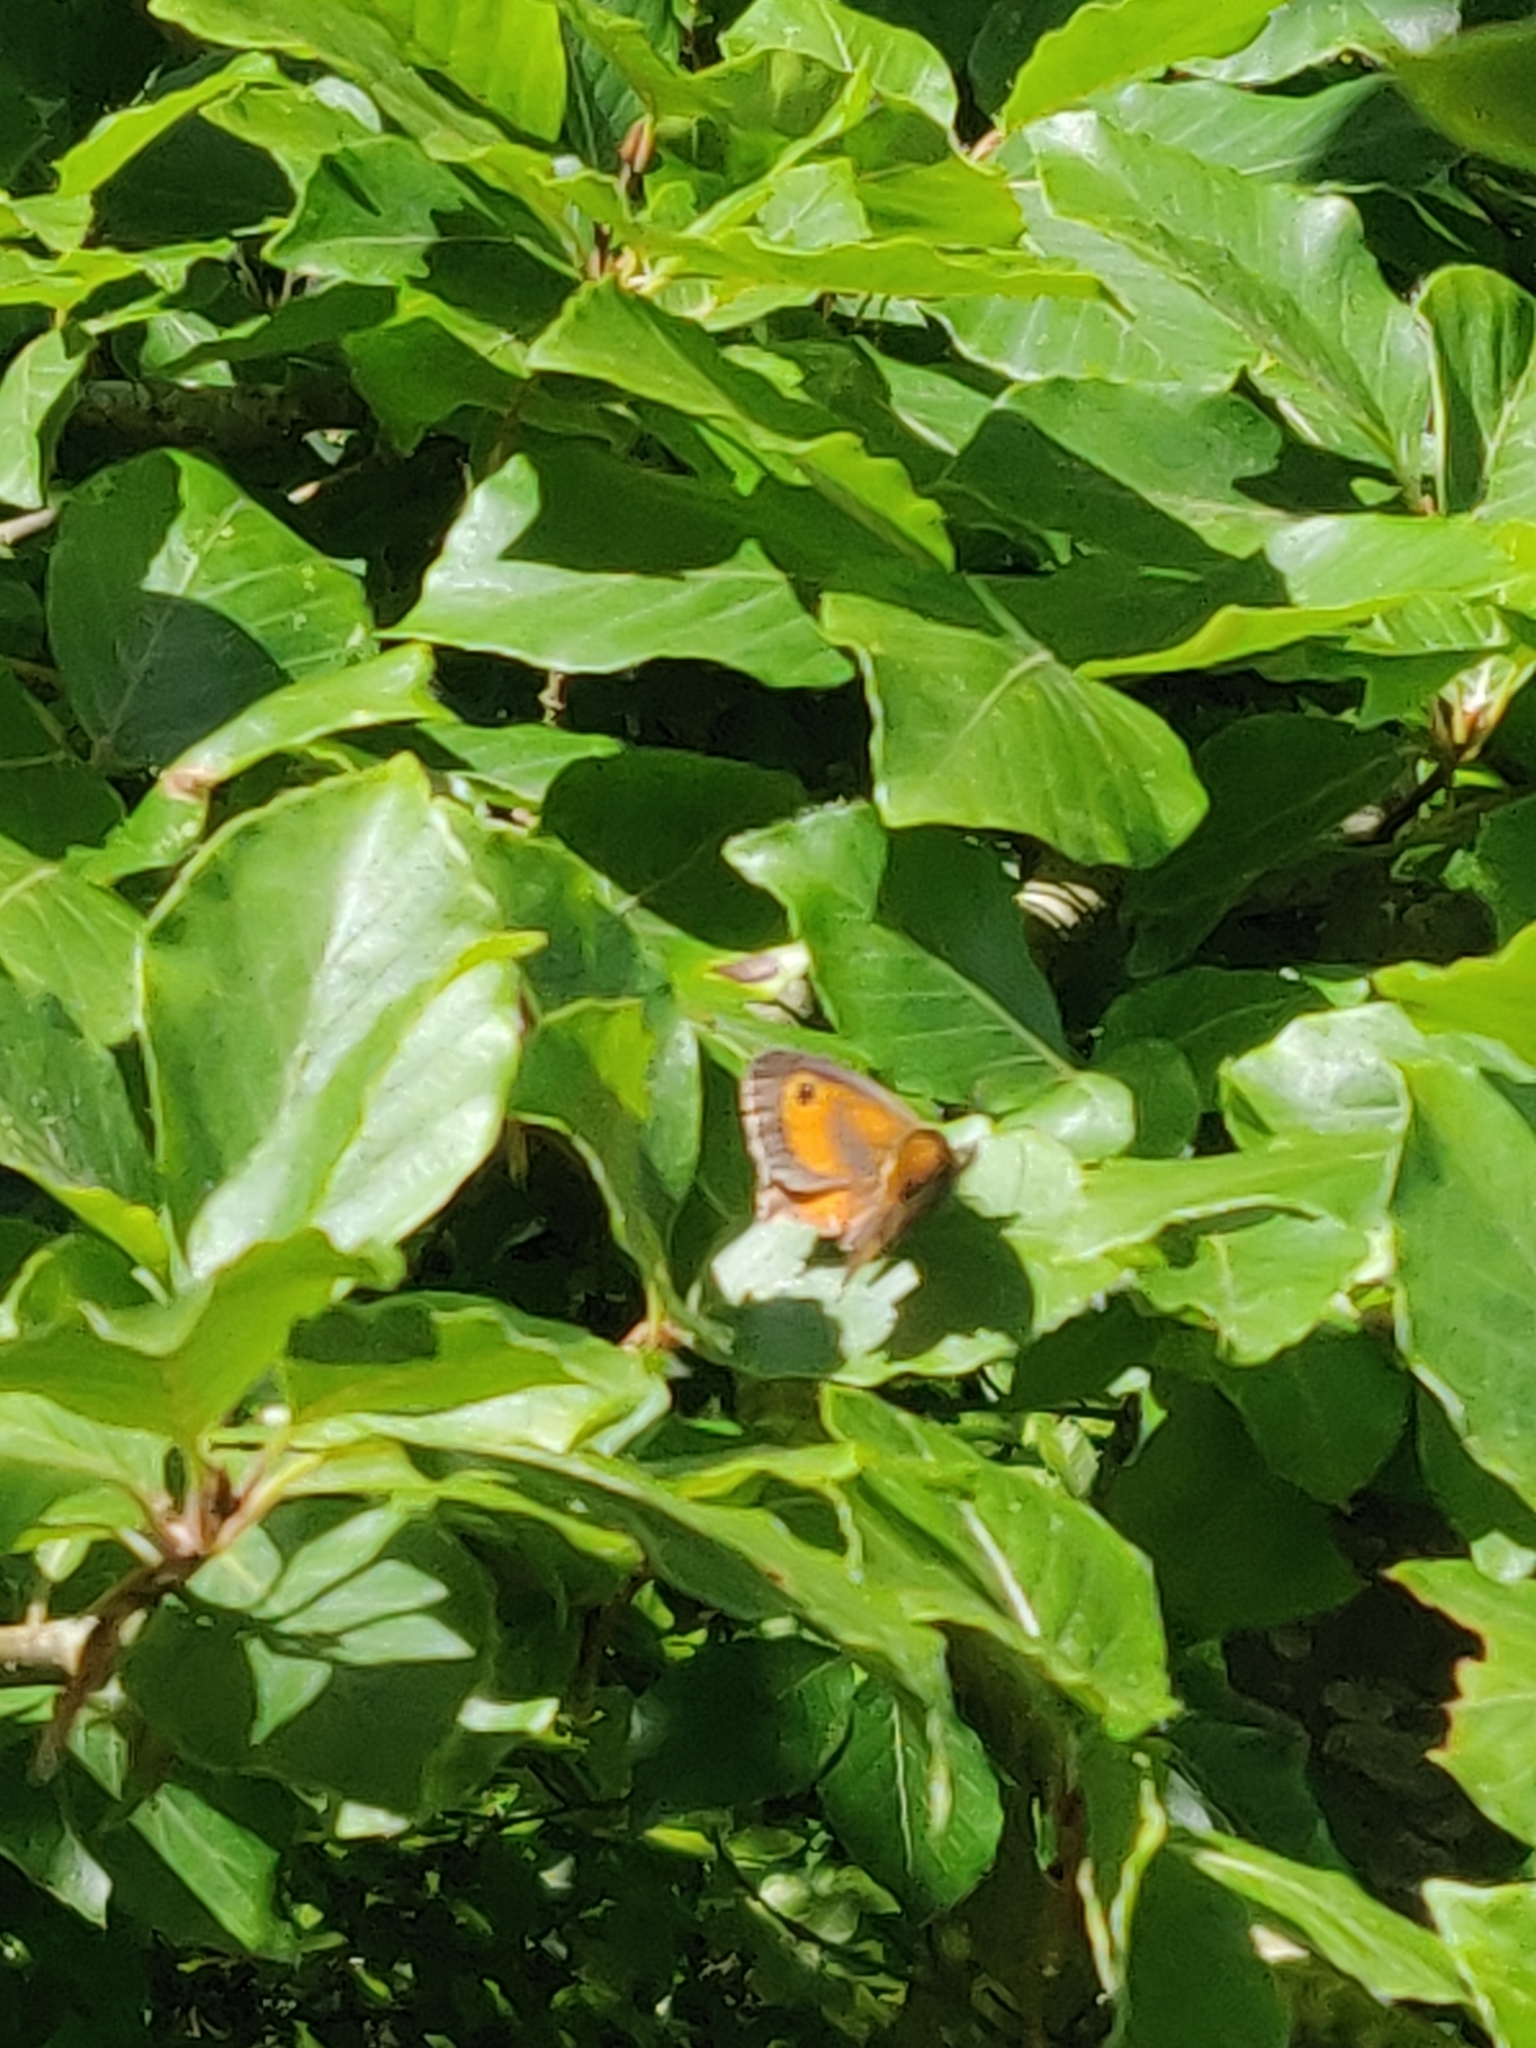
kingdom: Animalia
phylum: Arthropoda
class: Insecta
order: Lepidoptera
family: Nymphalidae
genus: Pyronia
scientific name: Pyronia tithonus
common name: Gatekeeper
